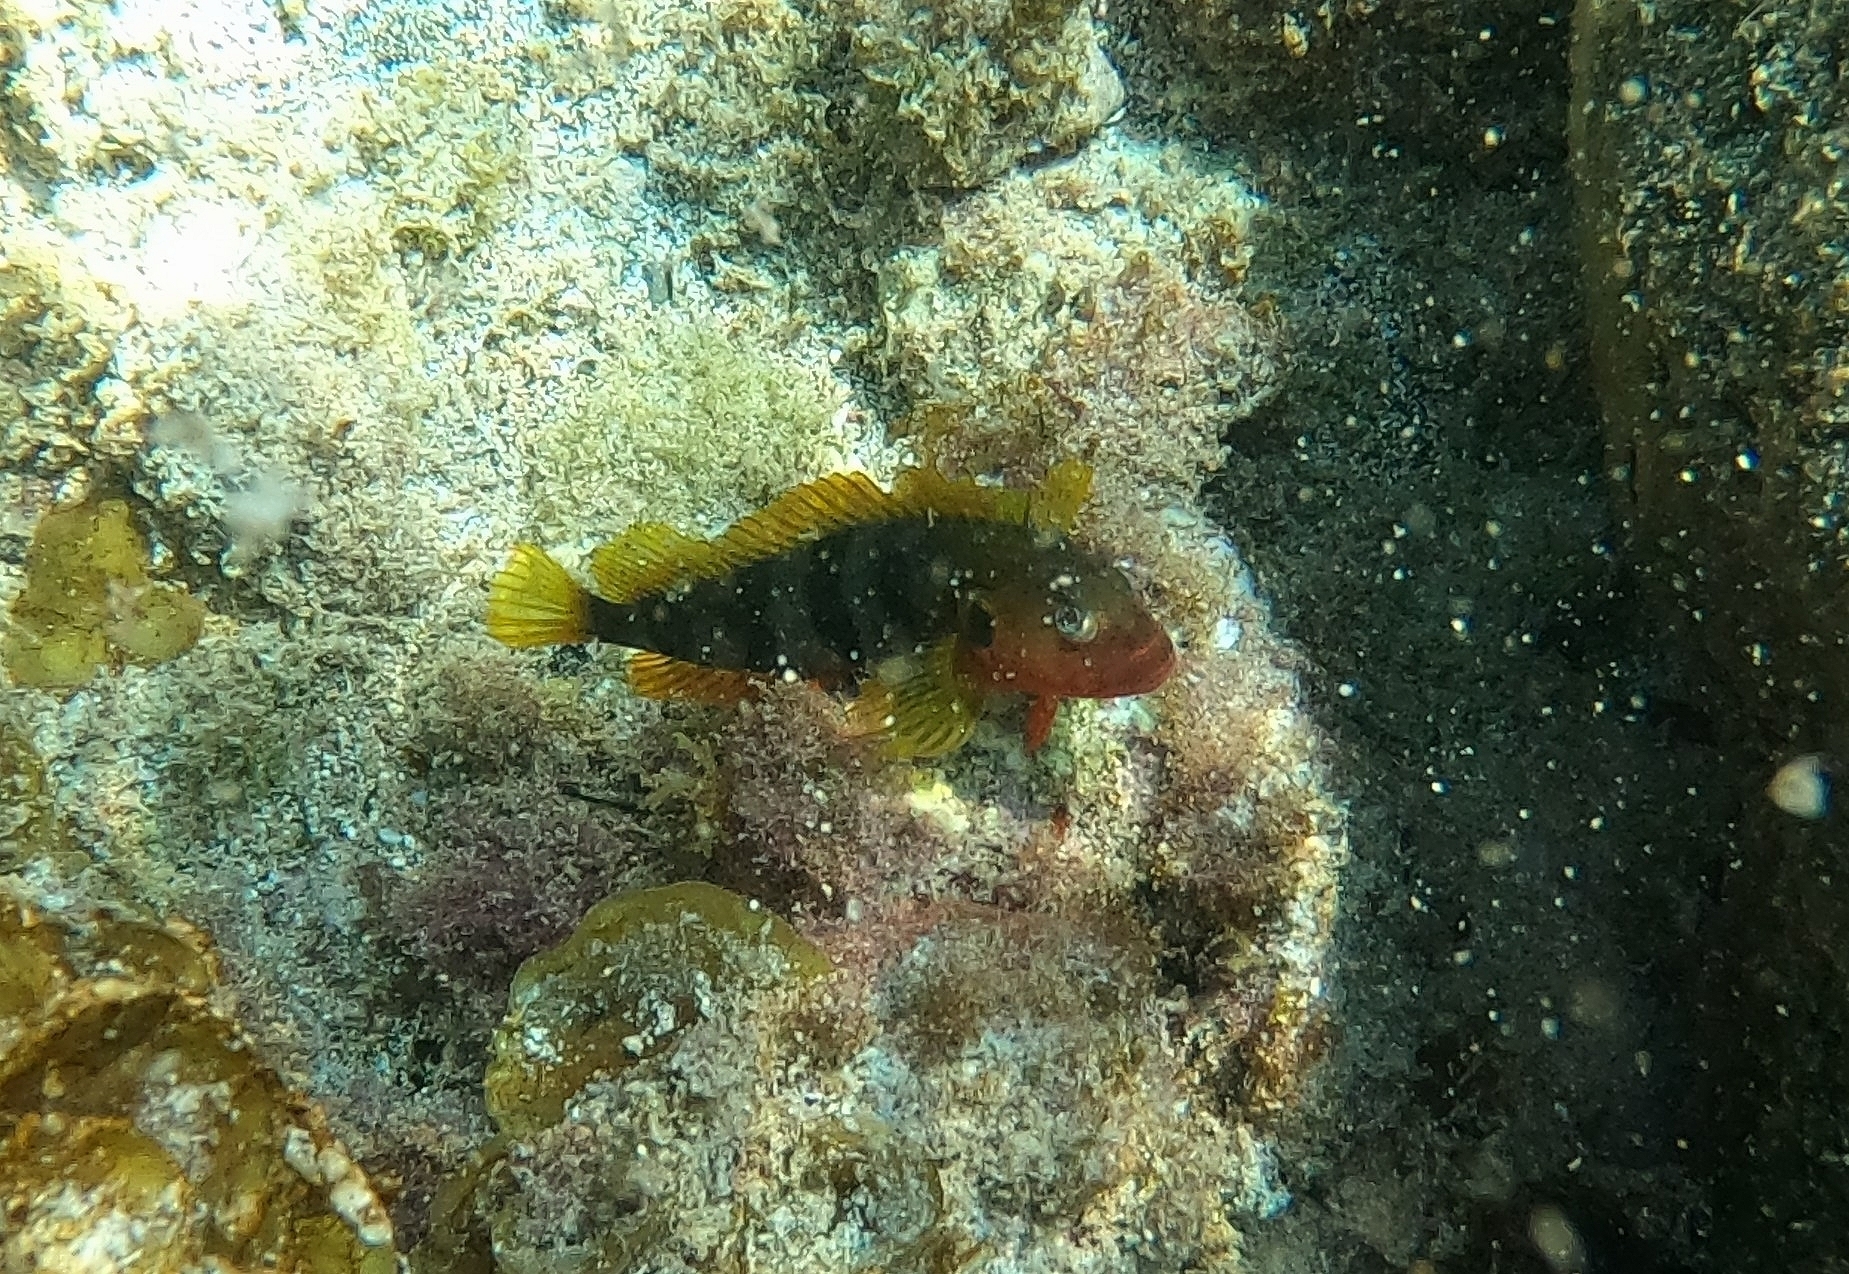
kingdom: Animalia
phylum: Chordata
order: Perciformes
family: Labrisomidae
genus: Labrisomus
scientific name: Labrisomus nuchipinnis
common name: Hairy blenny
